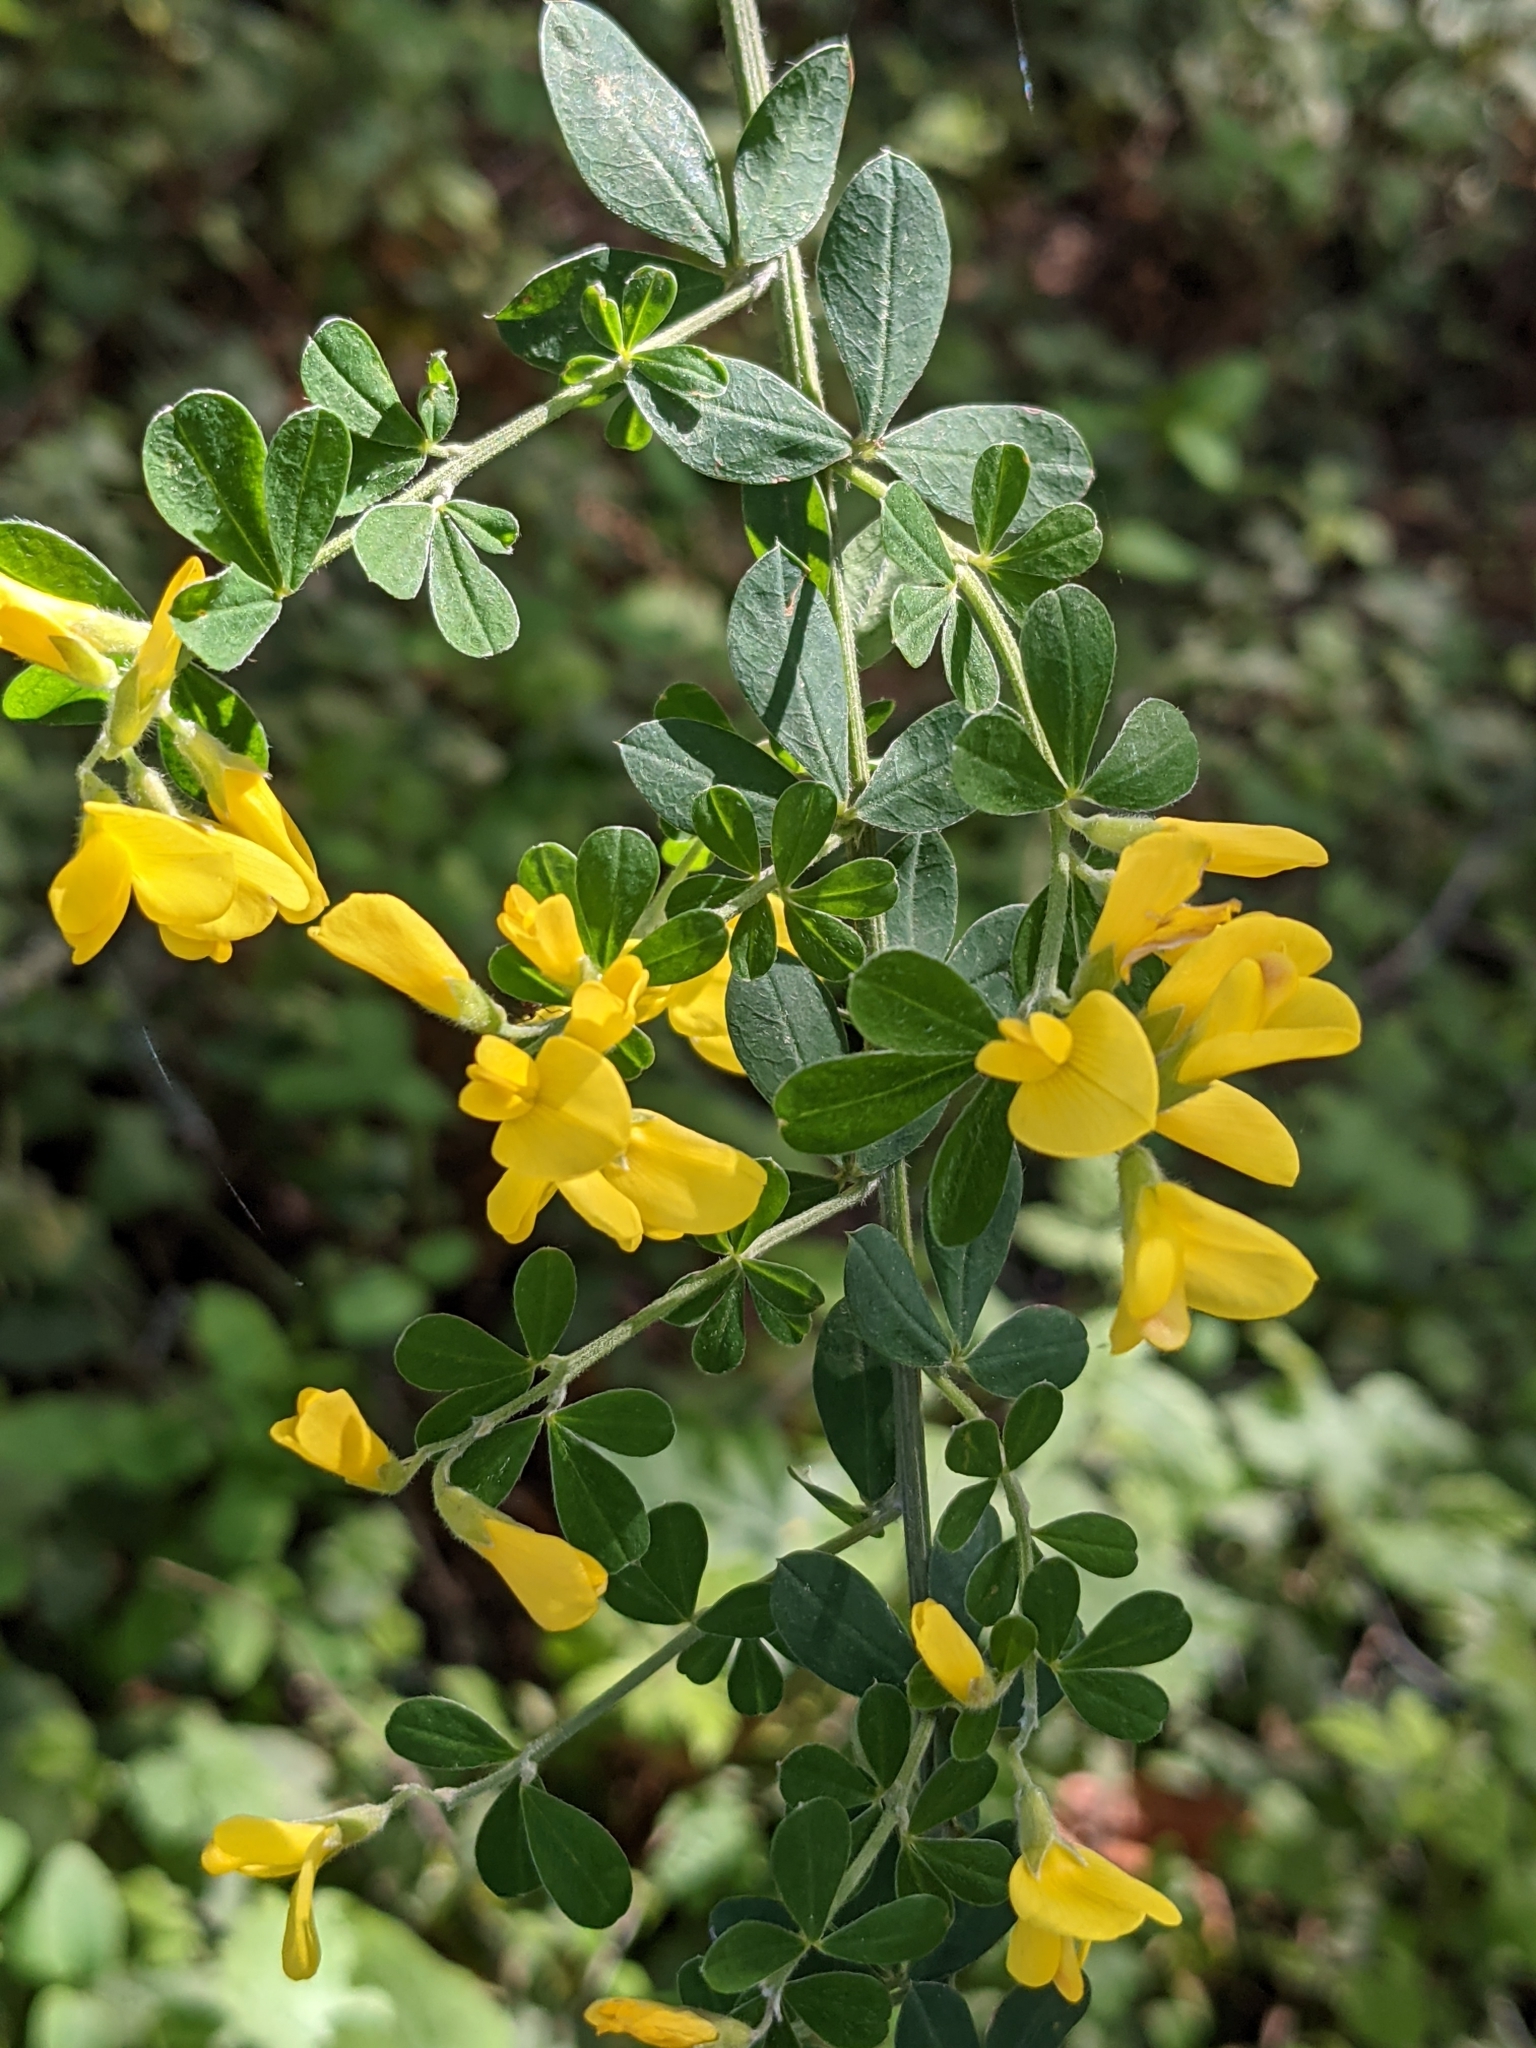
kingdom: Plantae
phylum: Tracheophyta
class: Magnoliopsida
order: Fabales
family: Fabaceae
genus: Genista
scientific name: Genista monspessulana
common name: Montpellier broom
